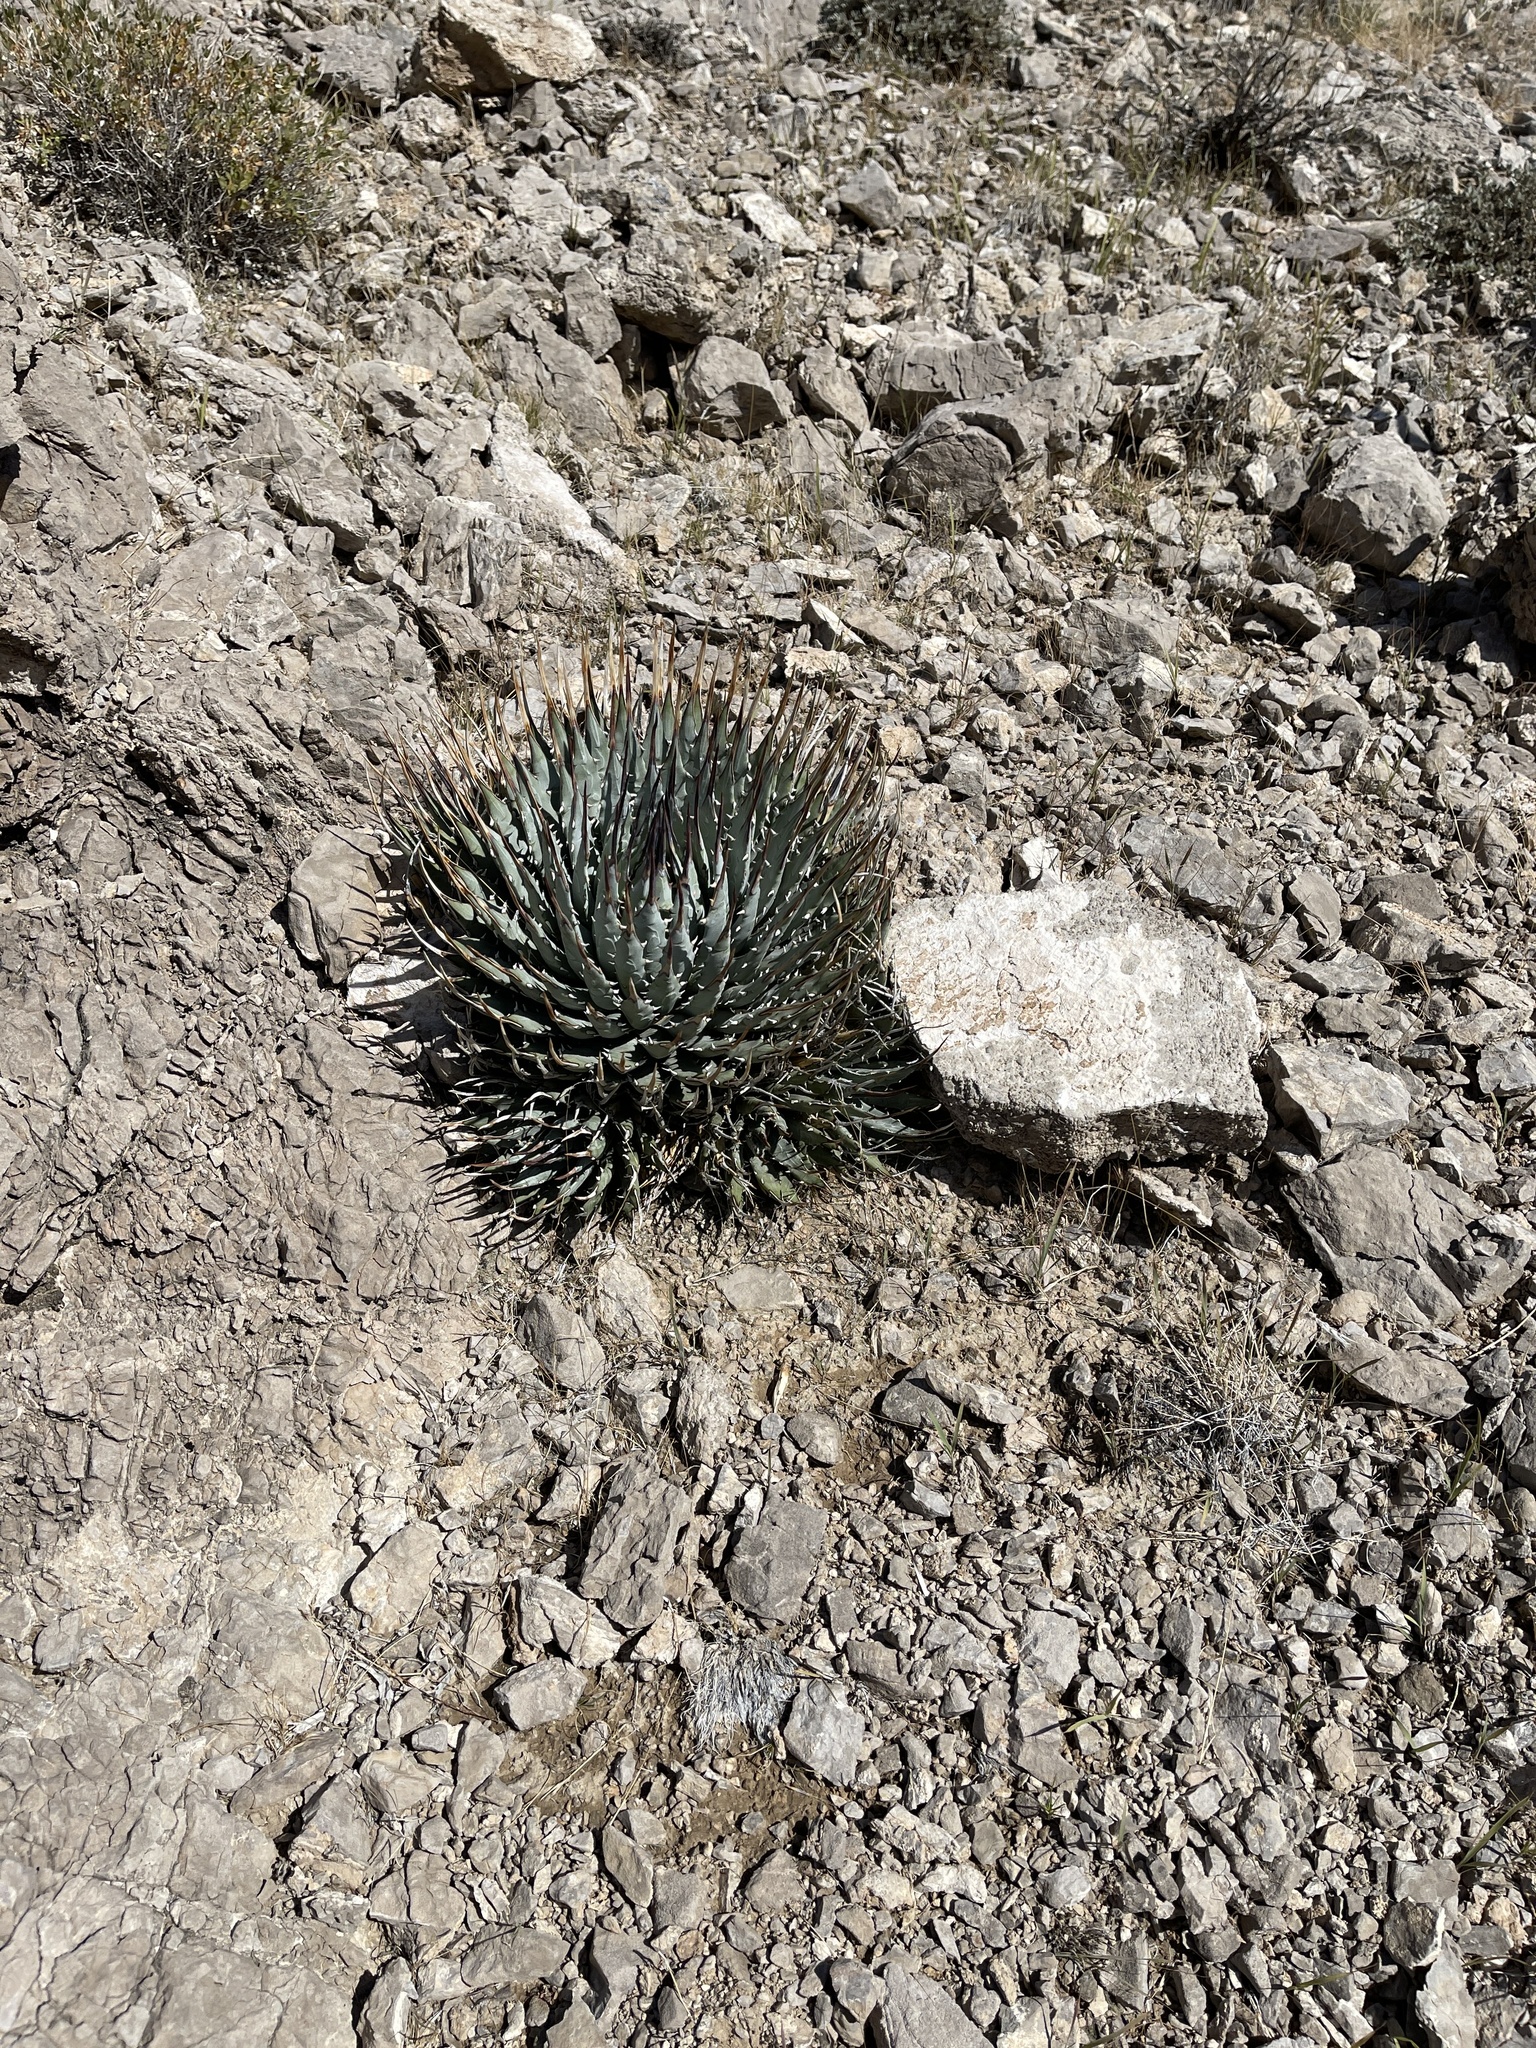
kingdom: Plantae
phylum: Tracheophyta
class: Liliopsida
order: Asparagales
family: Asparagaceae
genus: Agave
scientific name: Agave utahensis
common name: Utah agave
